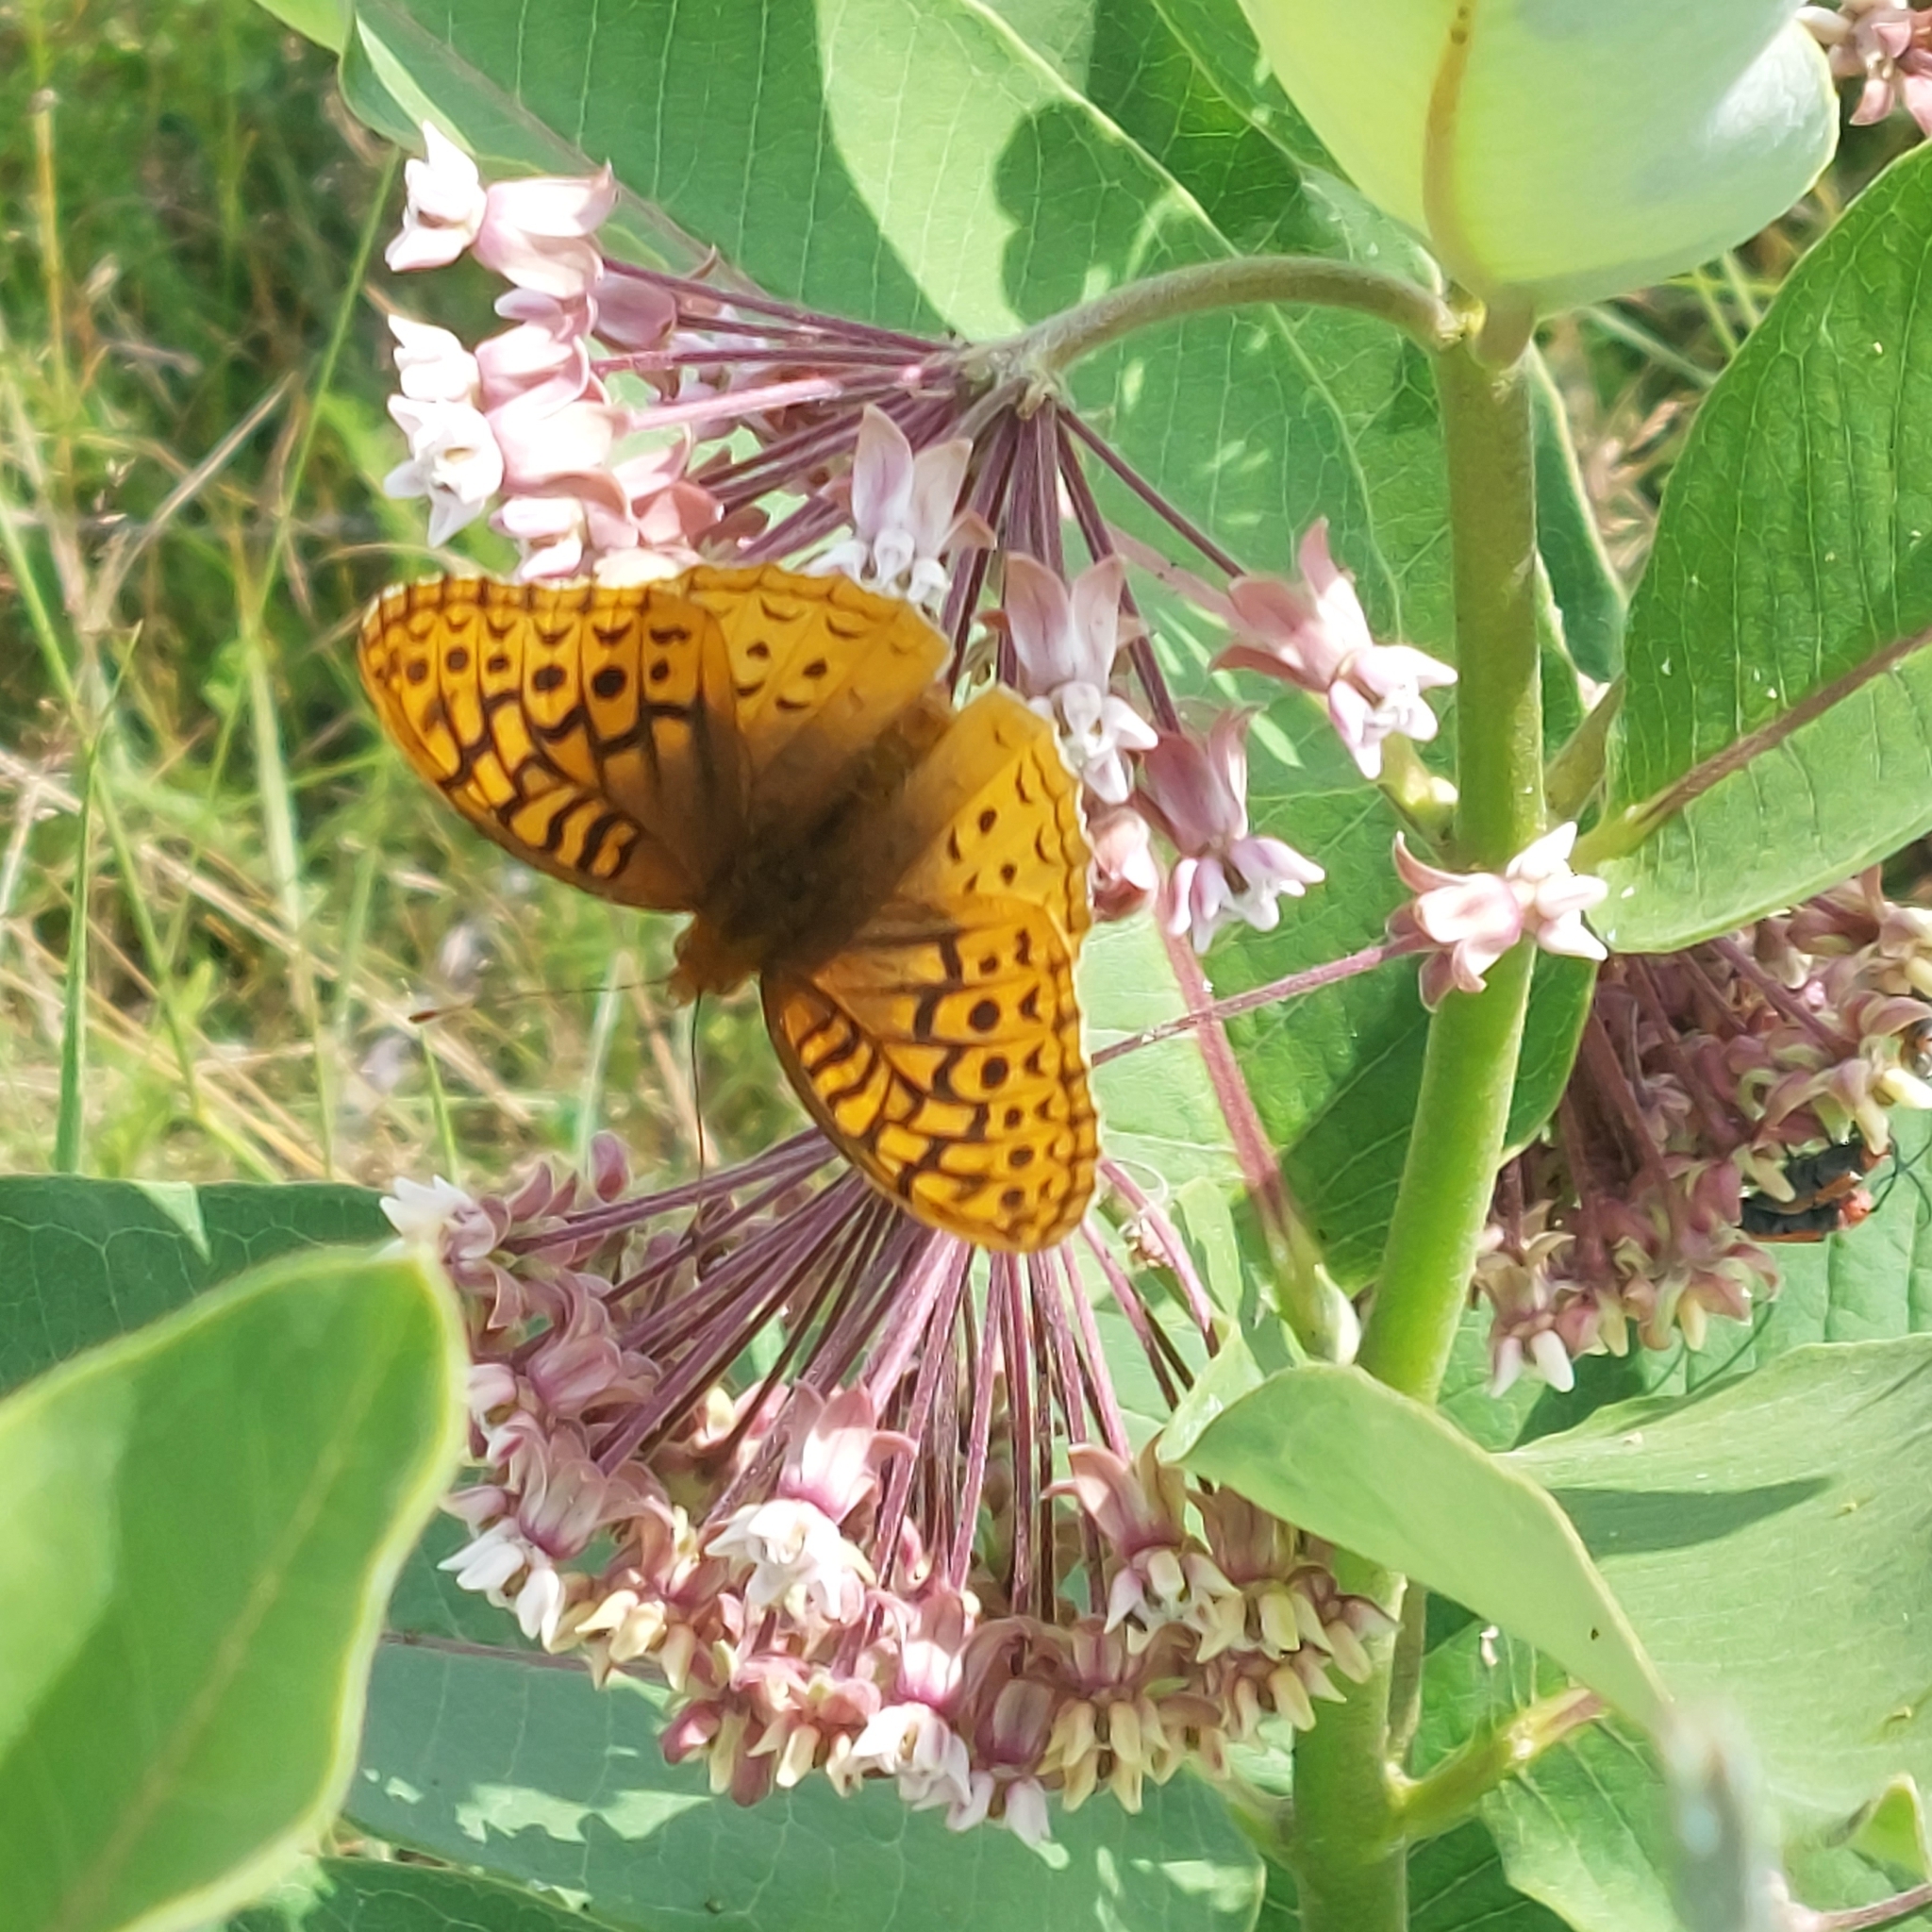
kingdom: Animalia
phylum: Arthropoda
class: Insecta
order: Lepidoptera
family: Nymphalidae
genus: Speyeria
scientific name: Speyeria cybele
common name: Great spangled fritillary
